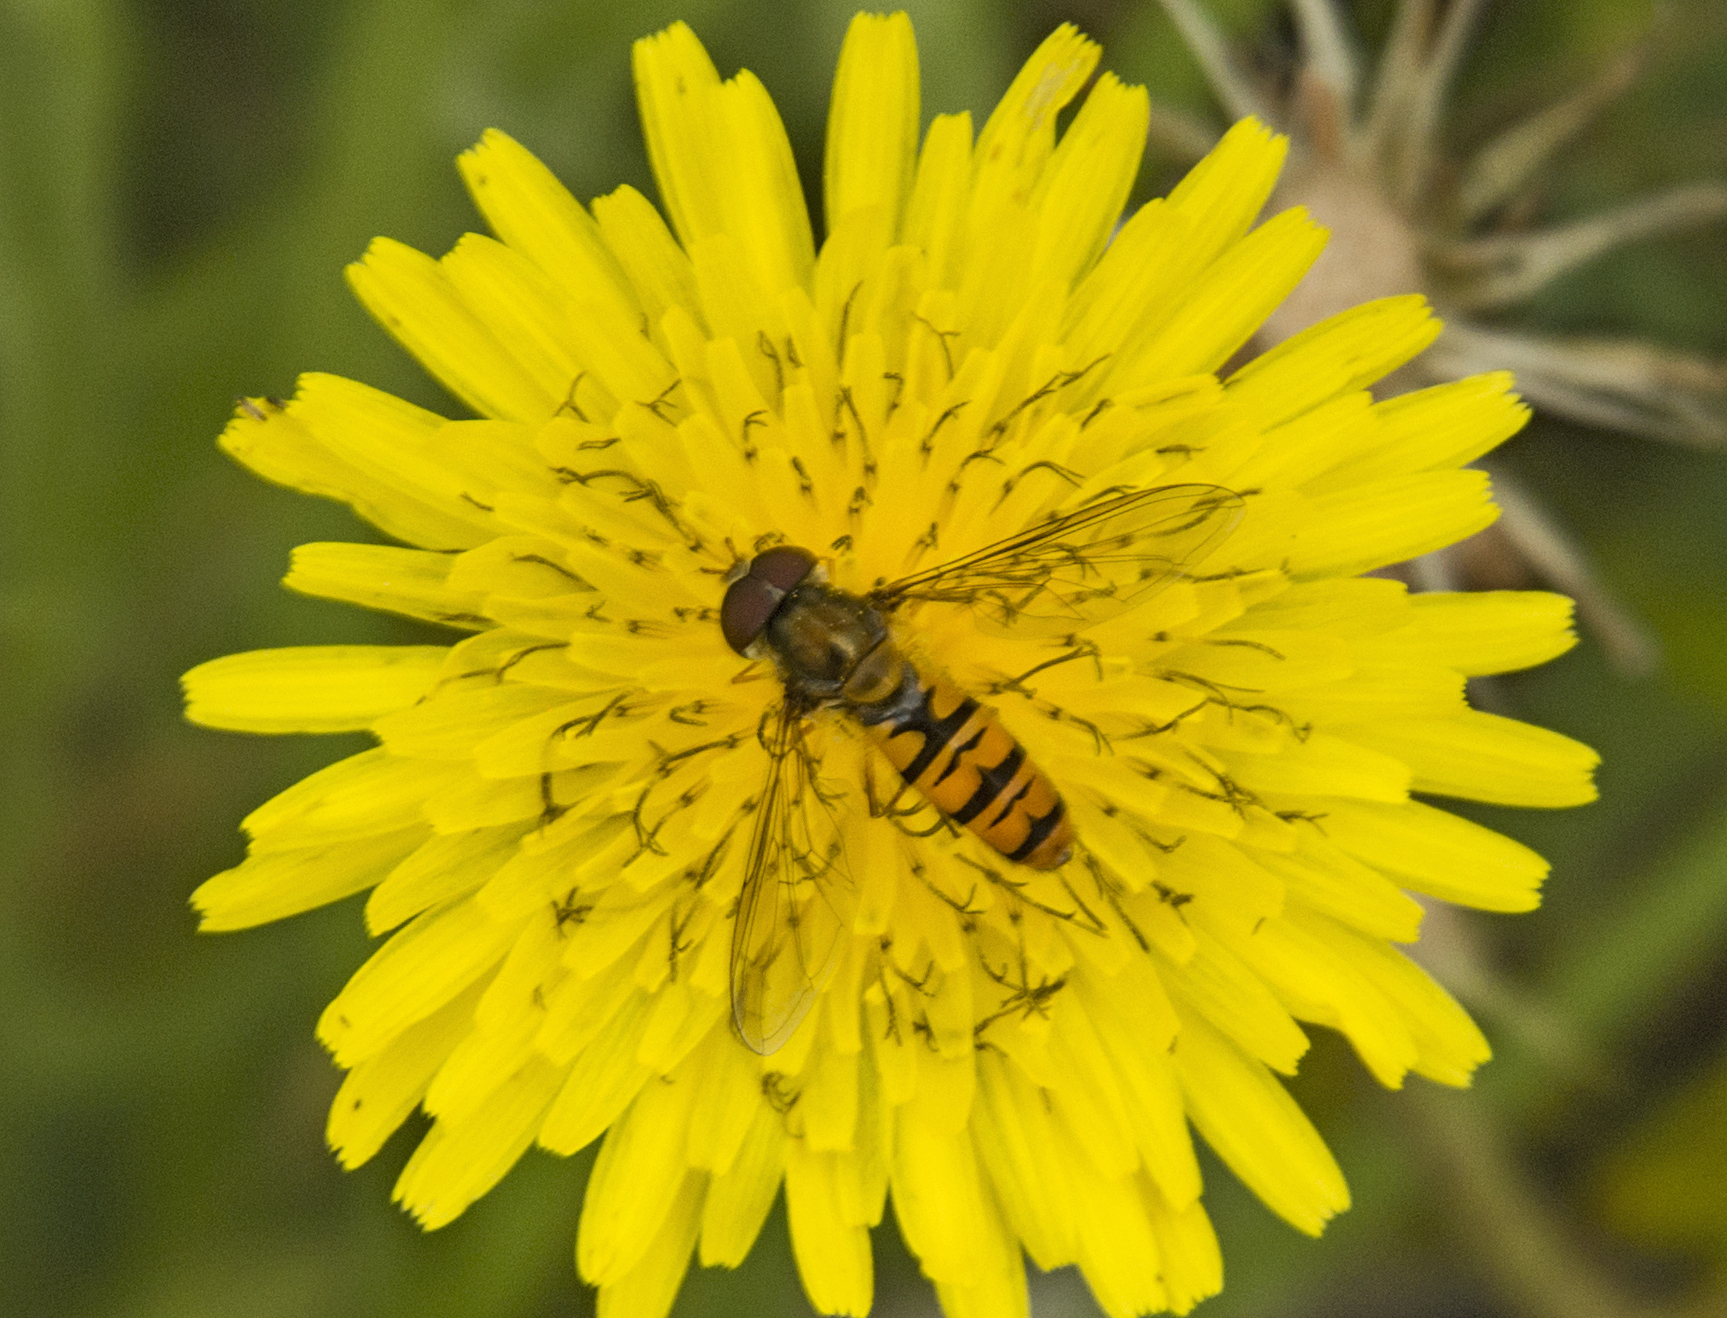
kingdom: Animalia
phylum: Arthropoda
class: Insecta
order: Diptera
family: Syrphidae
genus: Episyrphus
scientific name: Episyrphus balteatus
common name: Marmalade hoverfly
